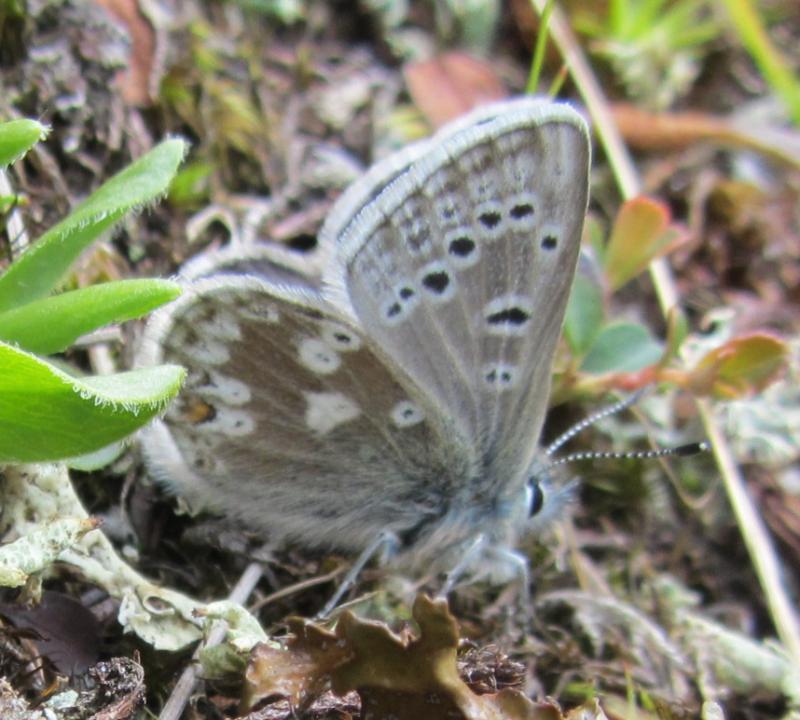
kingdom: Animalia
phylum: Arthropoda
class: Insecta
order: Lepidoptera
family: Lycaenidae
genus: Agriades
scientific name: Agriades glandon
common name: Glandon blue
